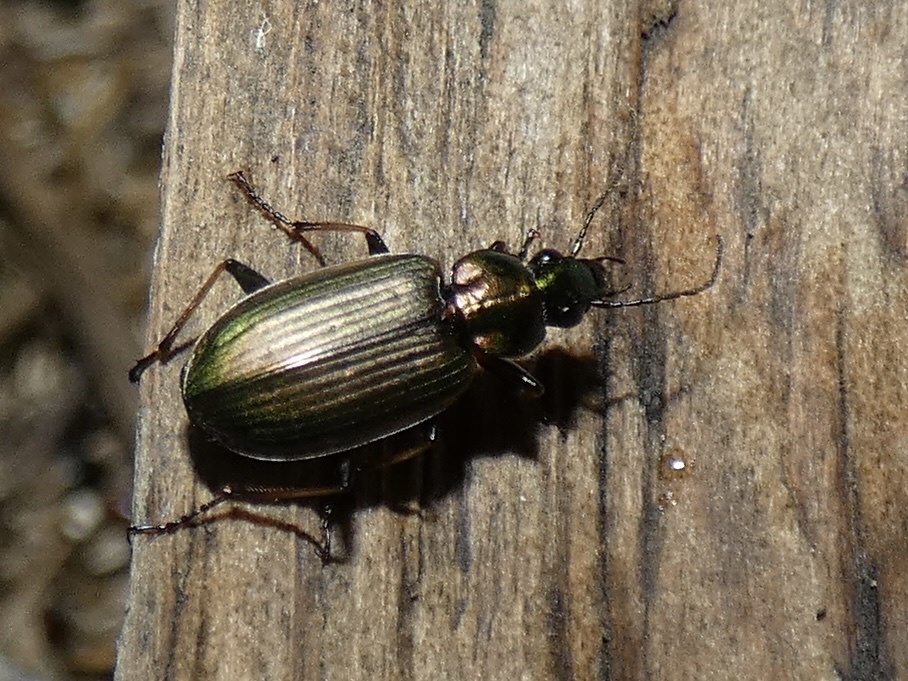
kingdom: Animalia
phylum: Arthropoda
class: Insecta
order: Coleoptera
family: Carabidae
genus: Agonum
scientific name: Agonum marginatum
